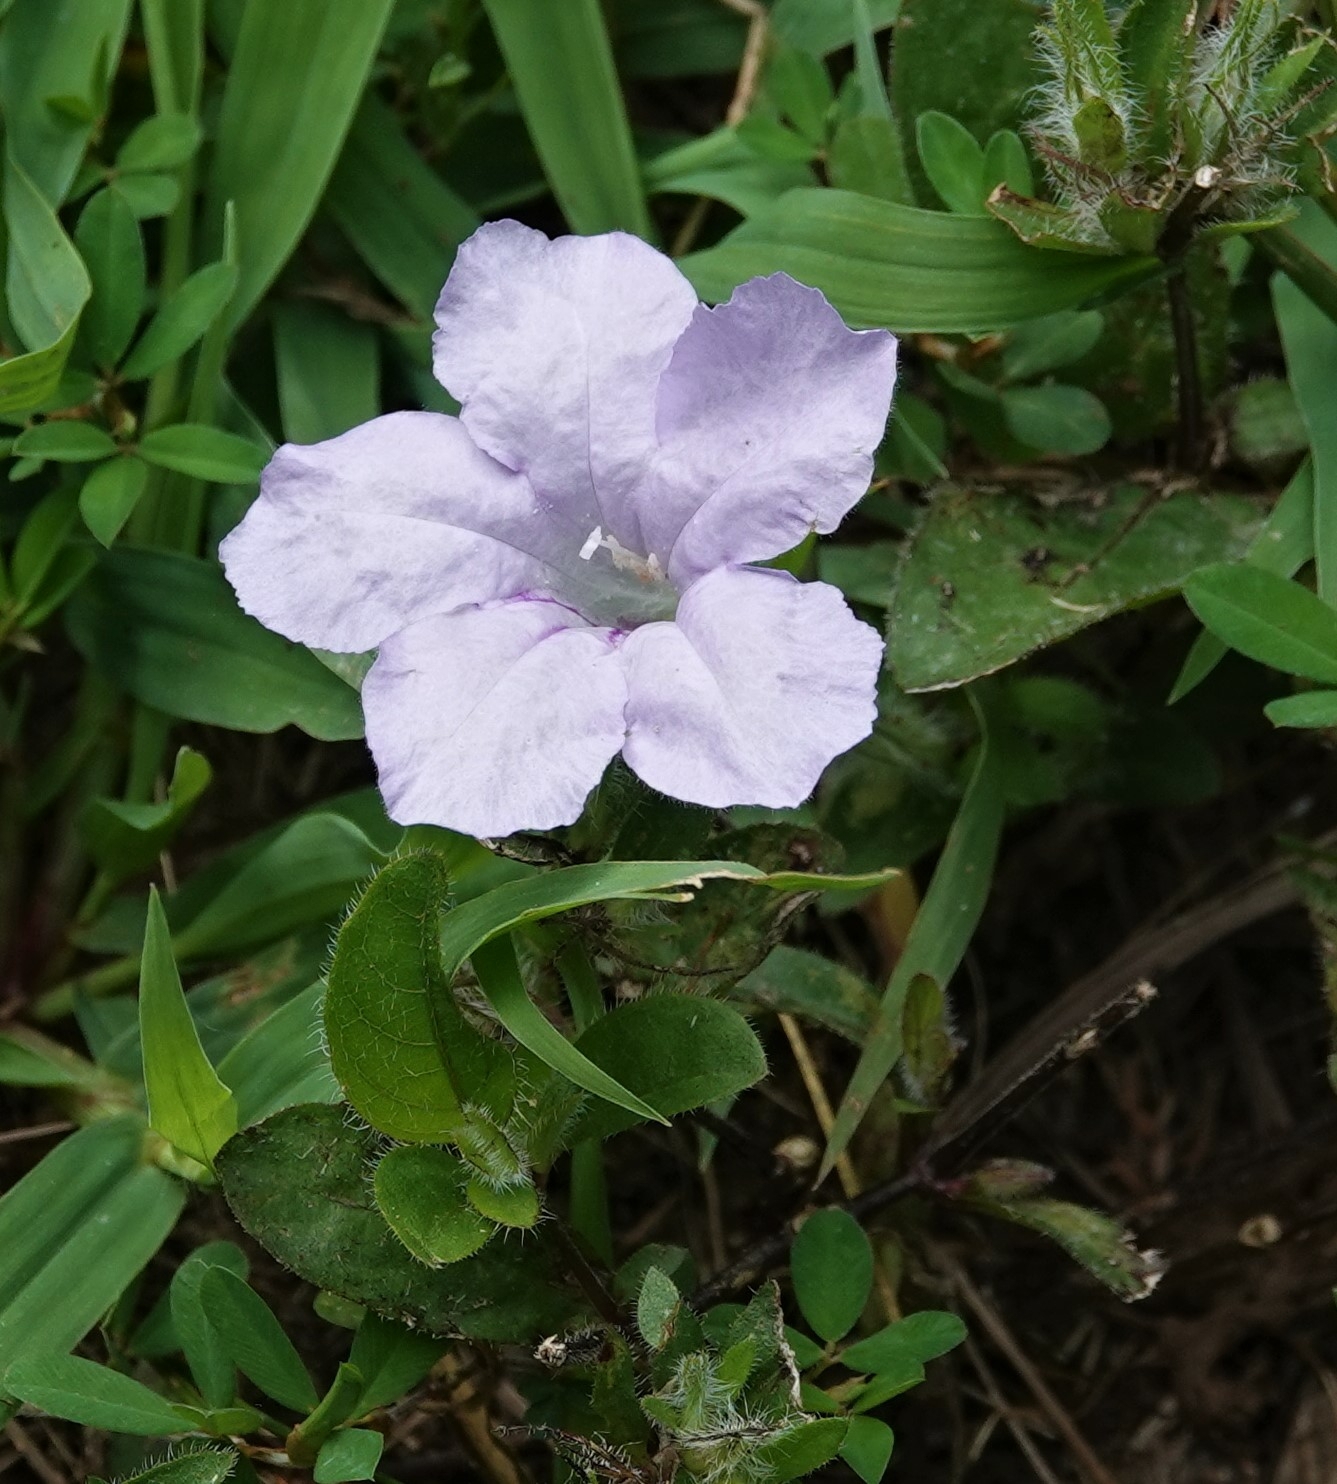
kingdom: Plantae
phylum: Tracheophyta
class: Magnoliopsida
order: Lamiales
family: Acanthaceae
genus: Ruellia
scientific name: Ruellia humilis
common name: Fringe-leaf ruellia
